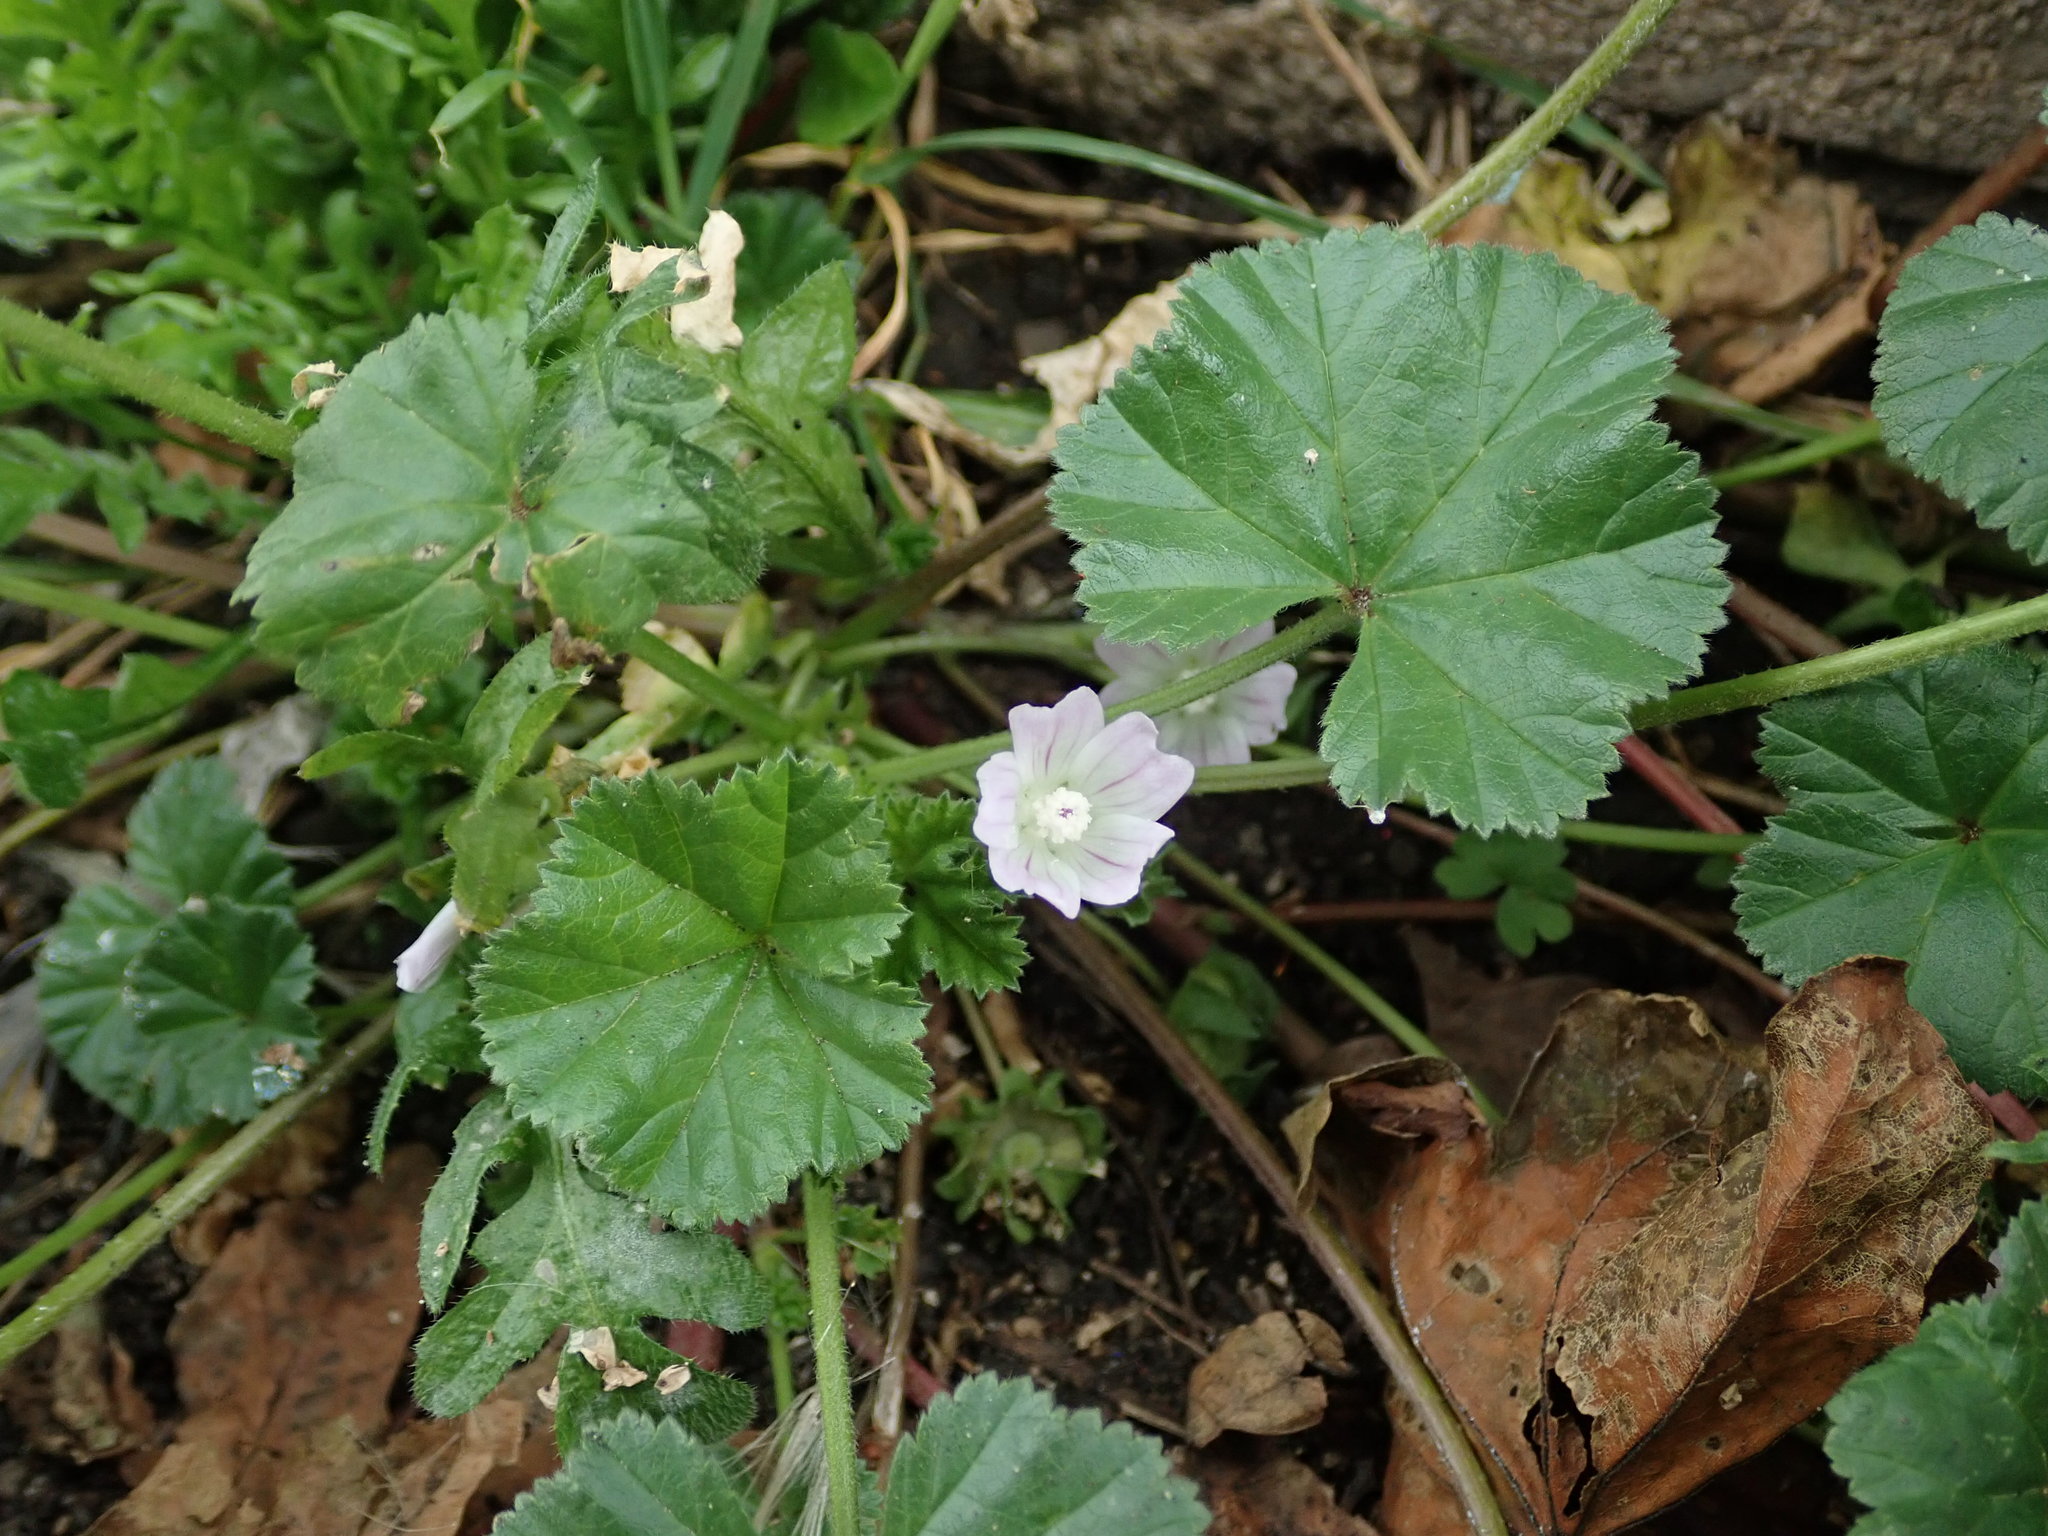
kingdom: Plantae
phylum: Tracheophyta
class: Magnoliopsida
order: Malvales
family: Malvaceae
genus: Malva
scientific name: Malva neglecta
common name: Common mallow
